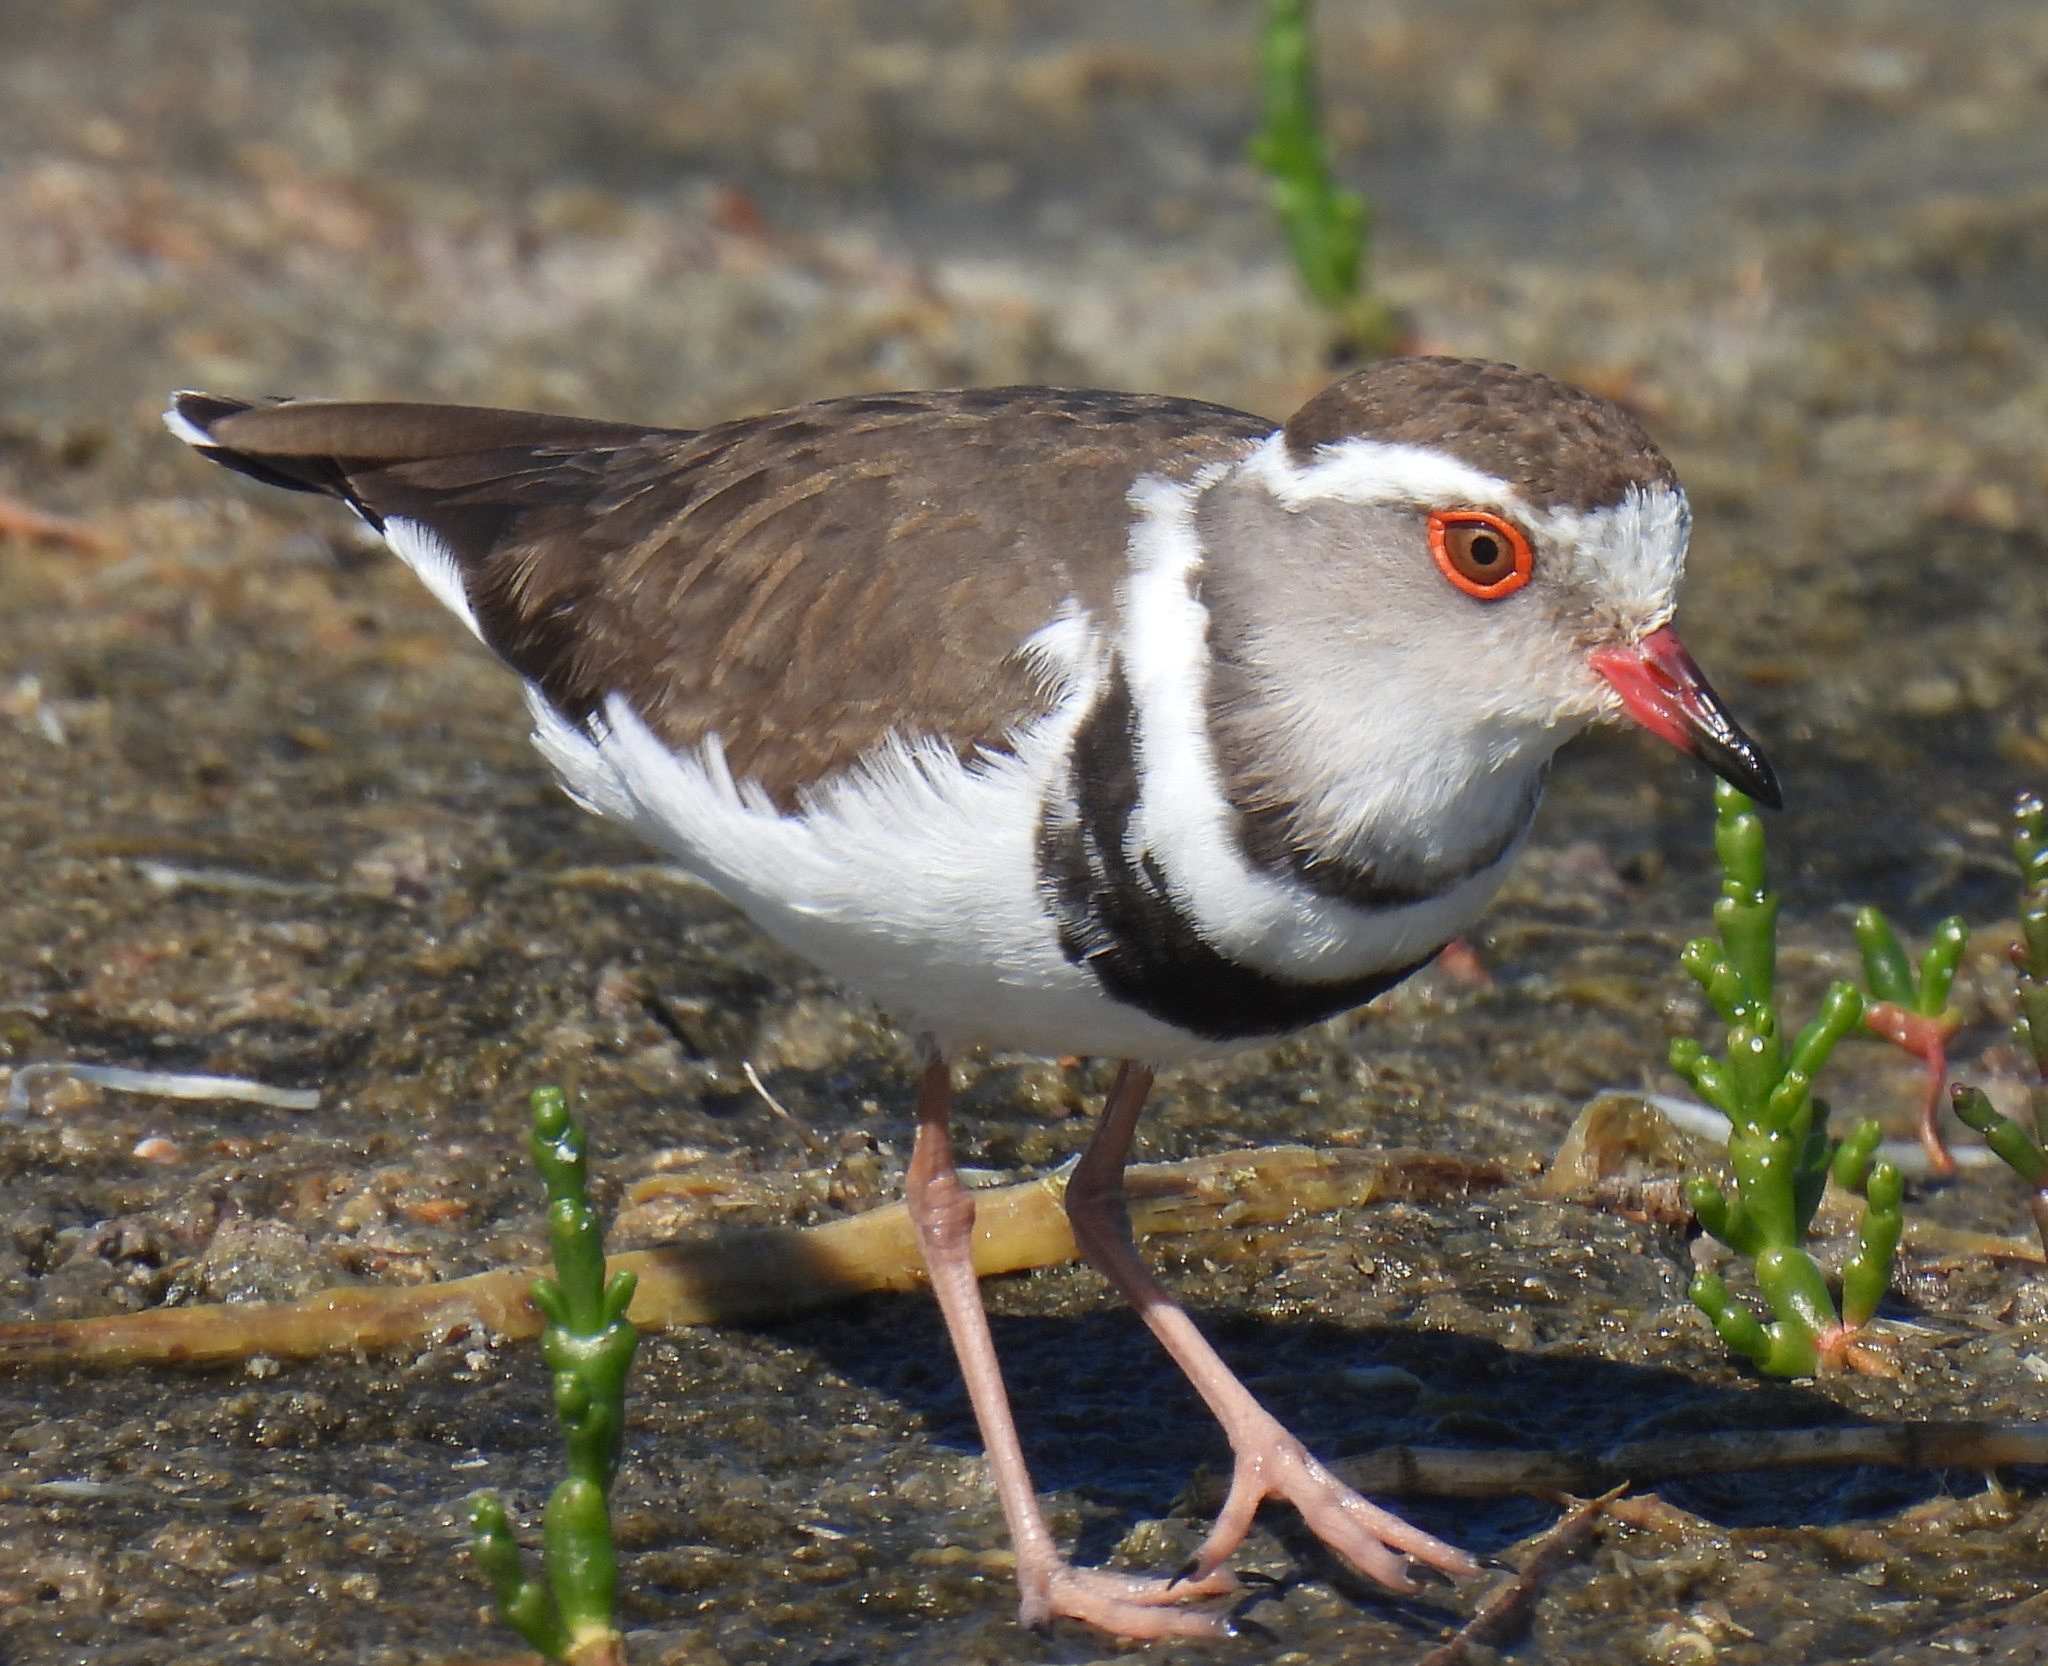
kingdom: Animalia
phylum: Chordata
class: Aves
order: Charadriiformes
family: Charadriidae
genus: Charadrius
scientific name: Charadrius tricollaris
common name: Three-banded plover
